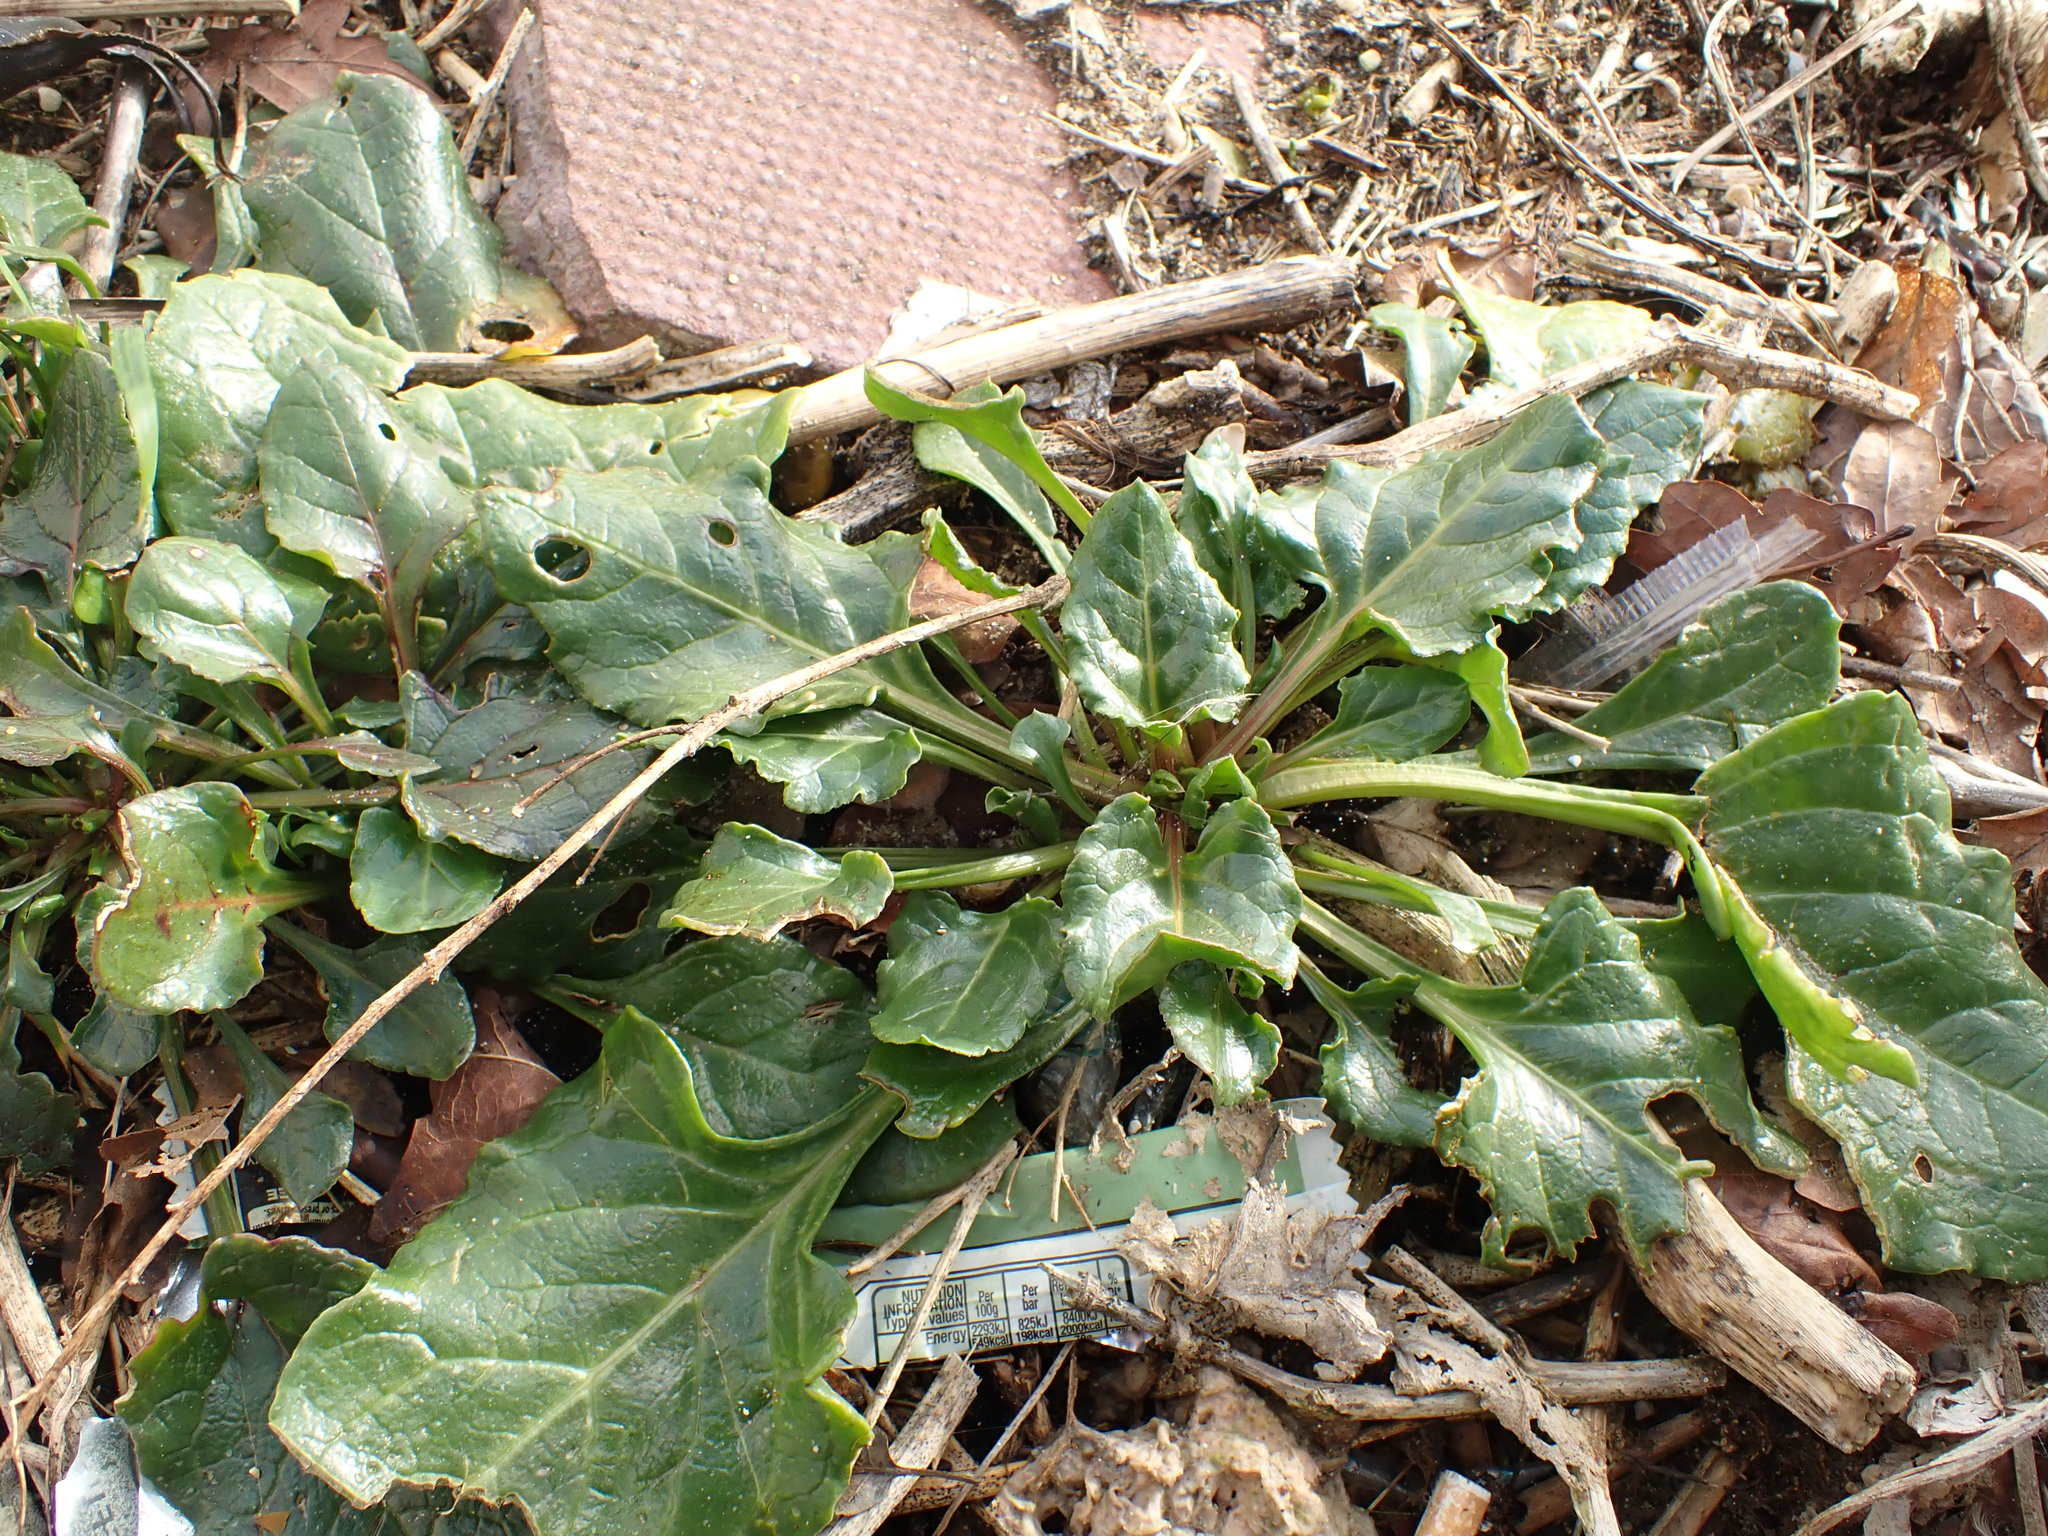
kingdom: Plantae
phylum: Tracheophyta
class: Magnoliopsida
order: Caryophyllales
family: Amaranthaceae
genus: Beta
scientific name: Beta vulgaris
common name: Beet
